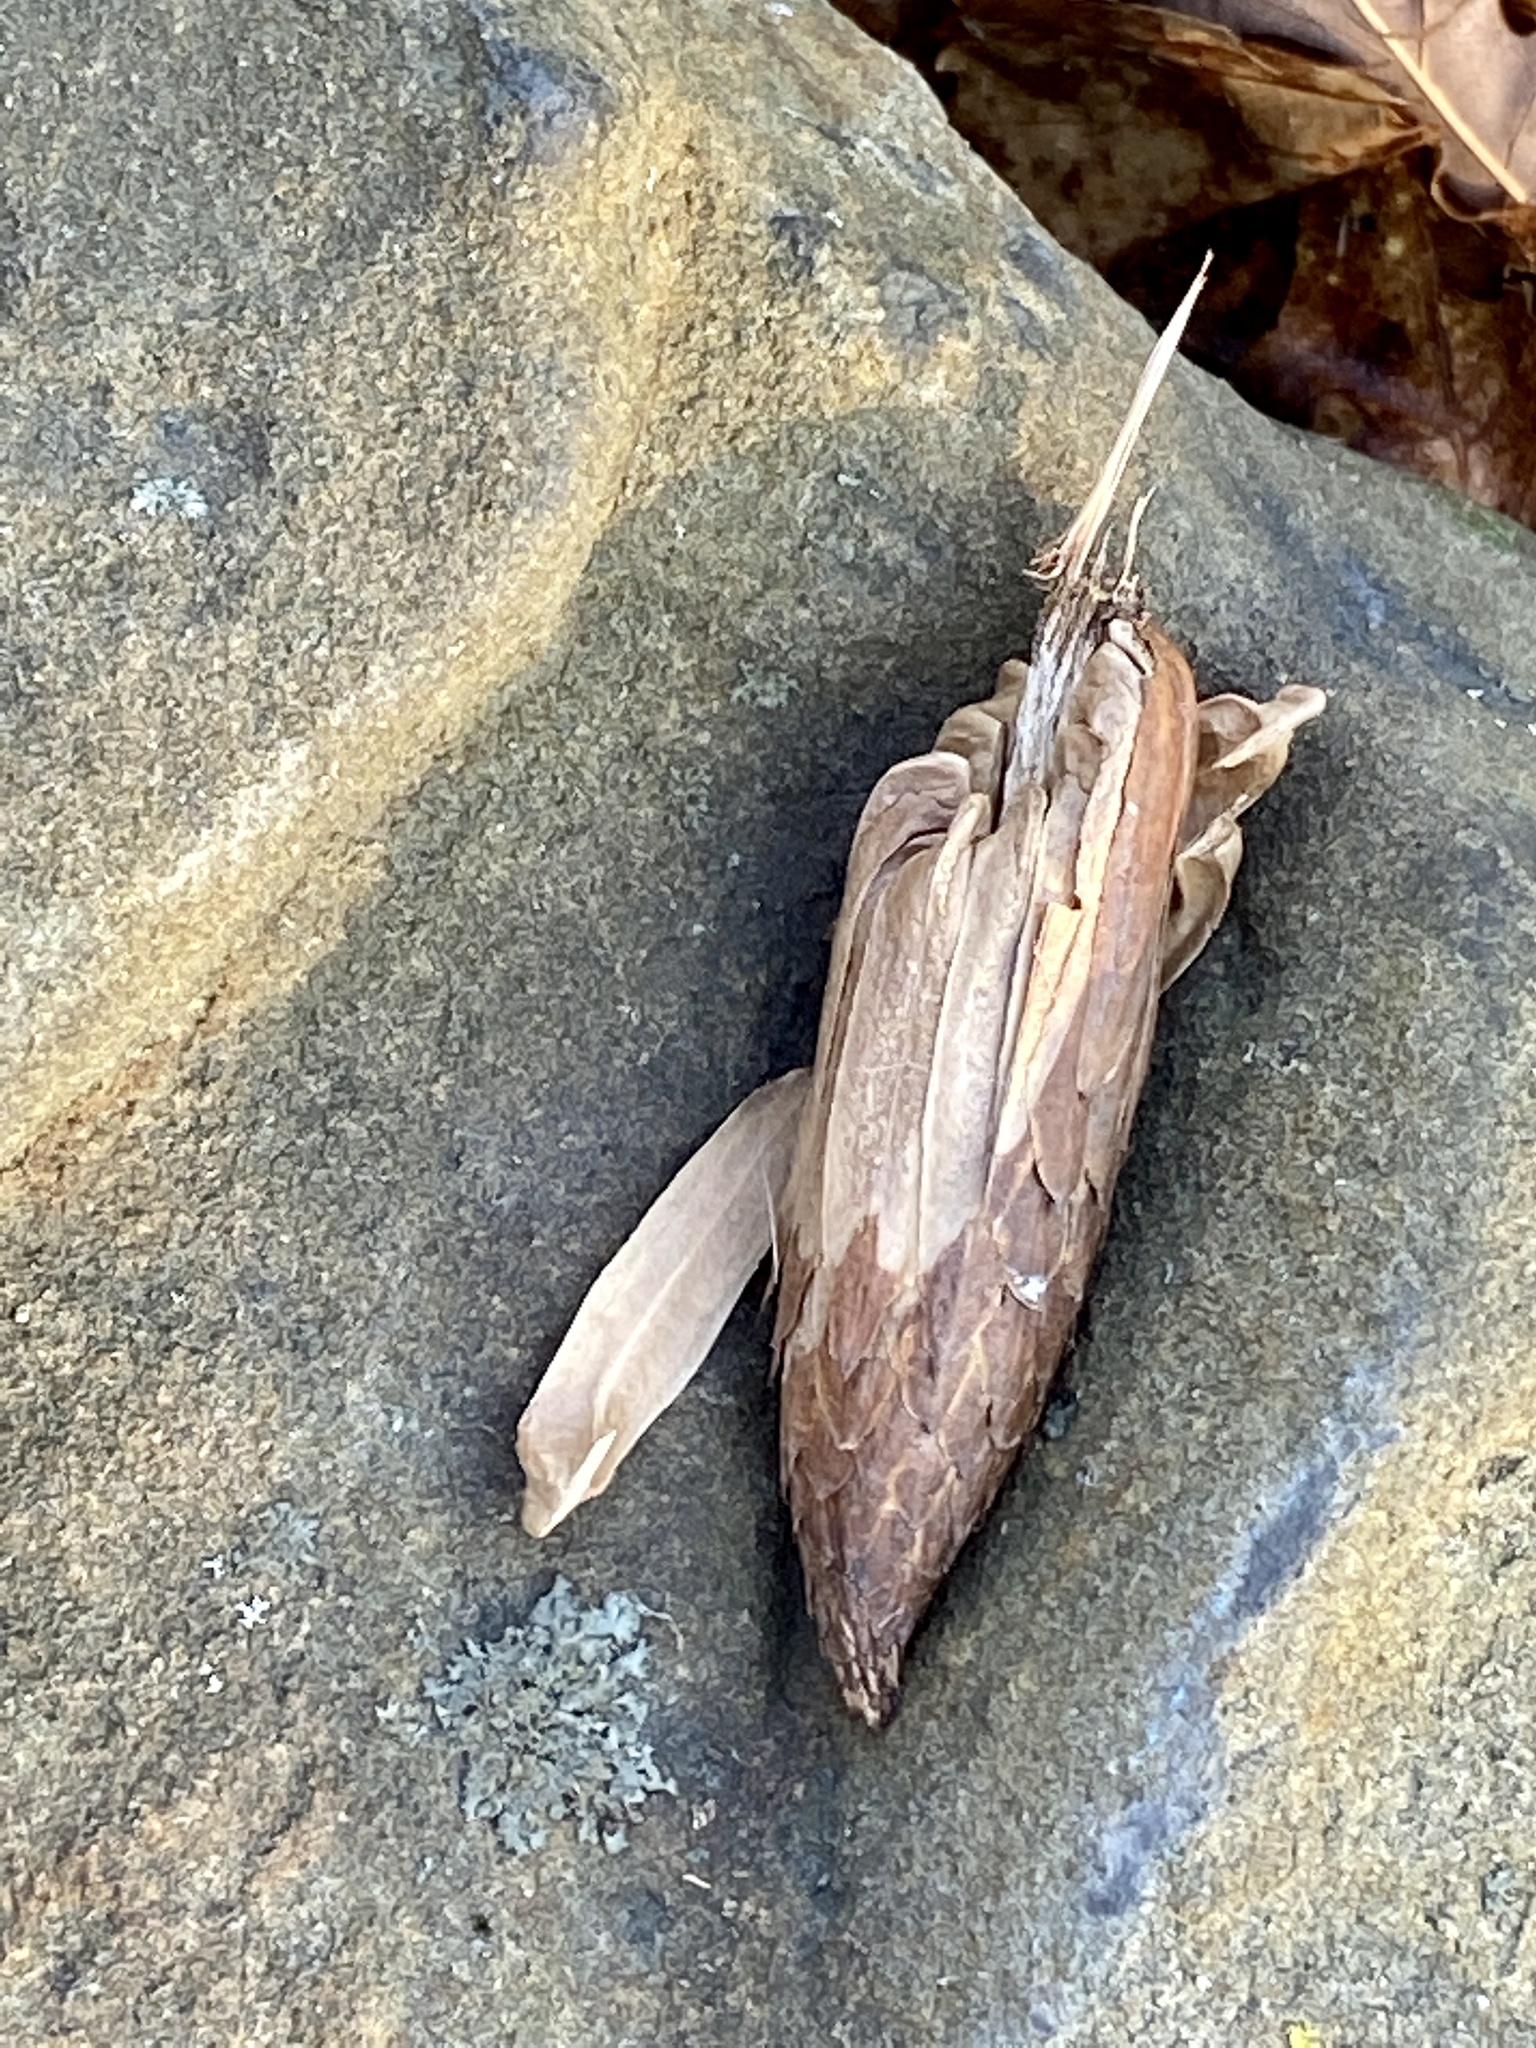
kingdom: Plantae
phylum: Tracheophyta
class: Magnoliopsida
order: Magnoliales
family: Magnoliaceae
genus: Liriodendron
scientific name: Liriodendron tulipifera
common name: Tulip tree
